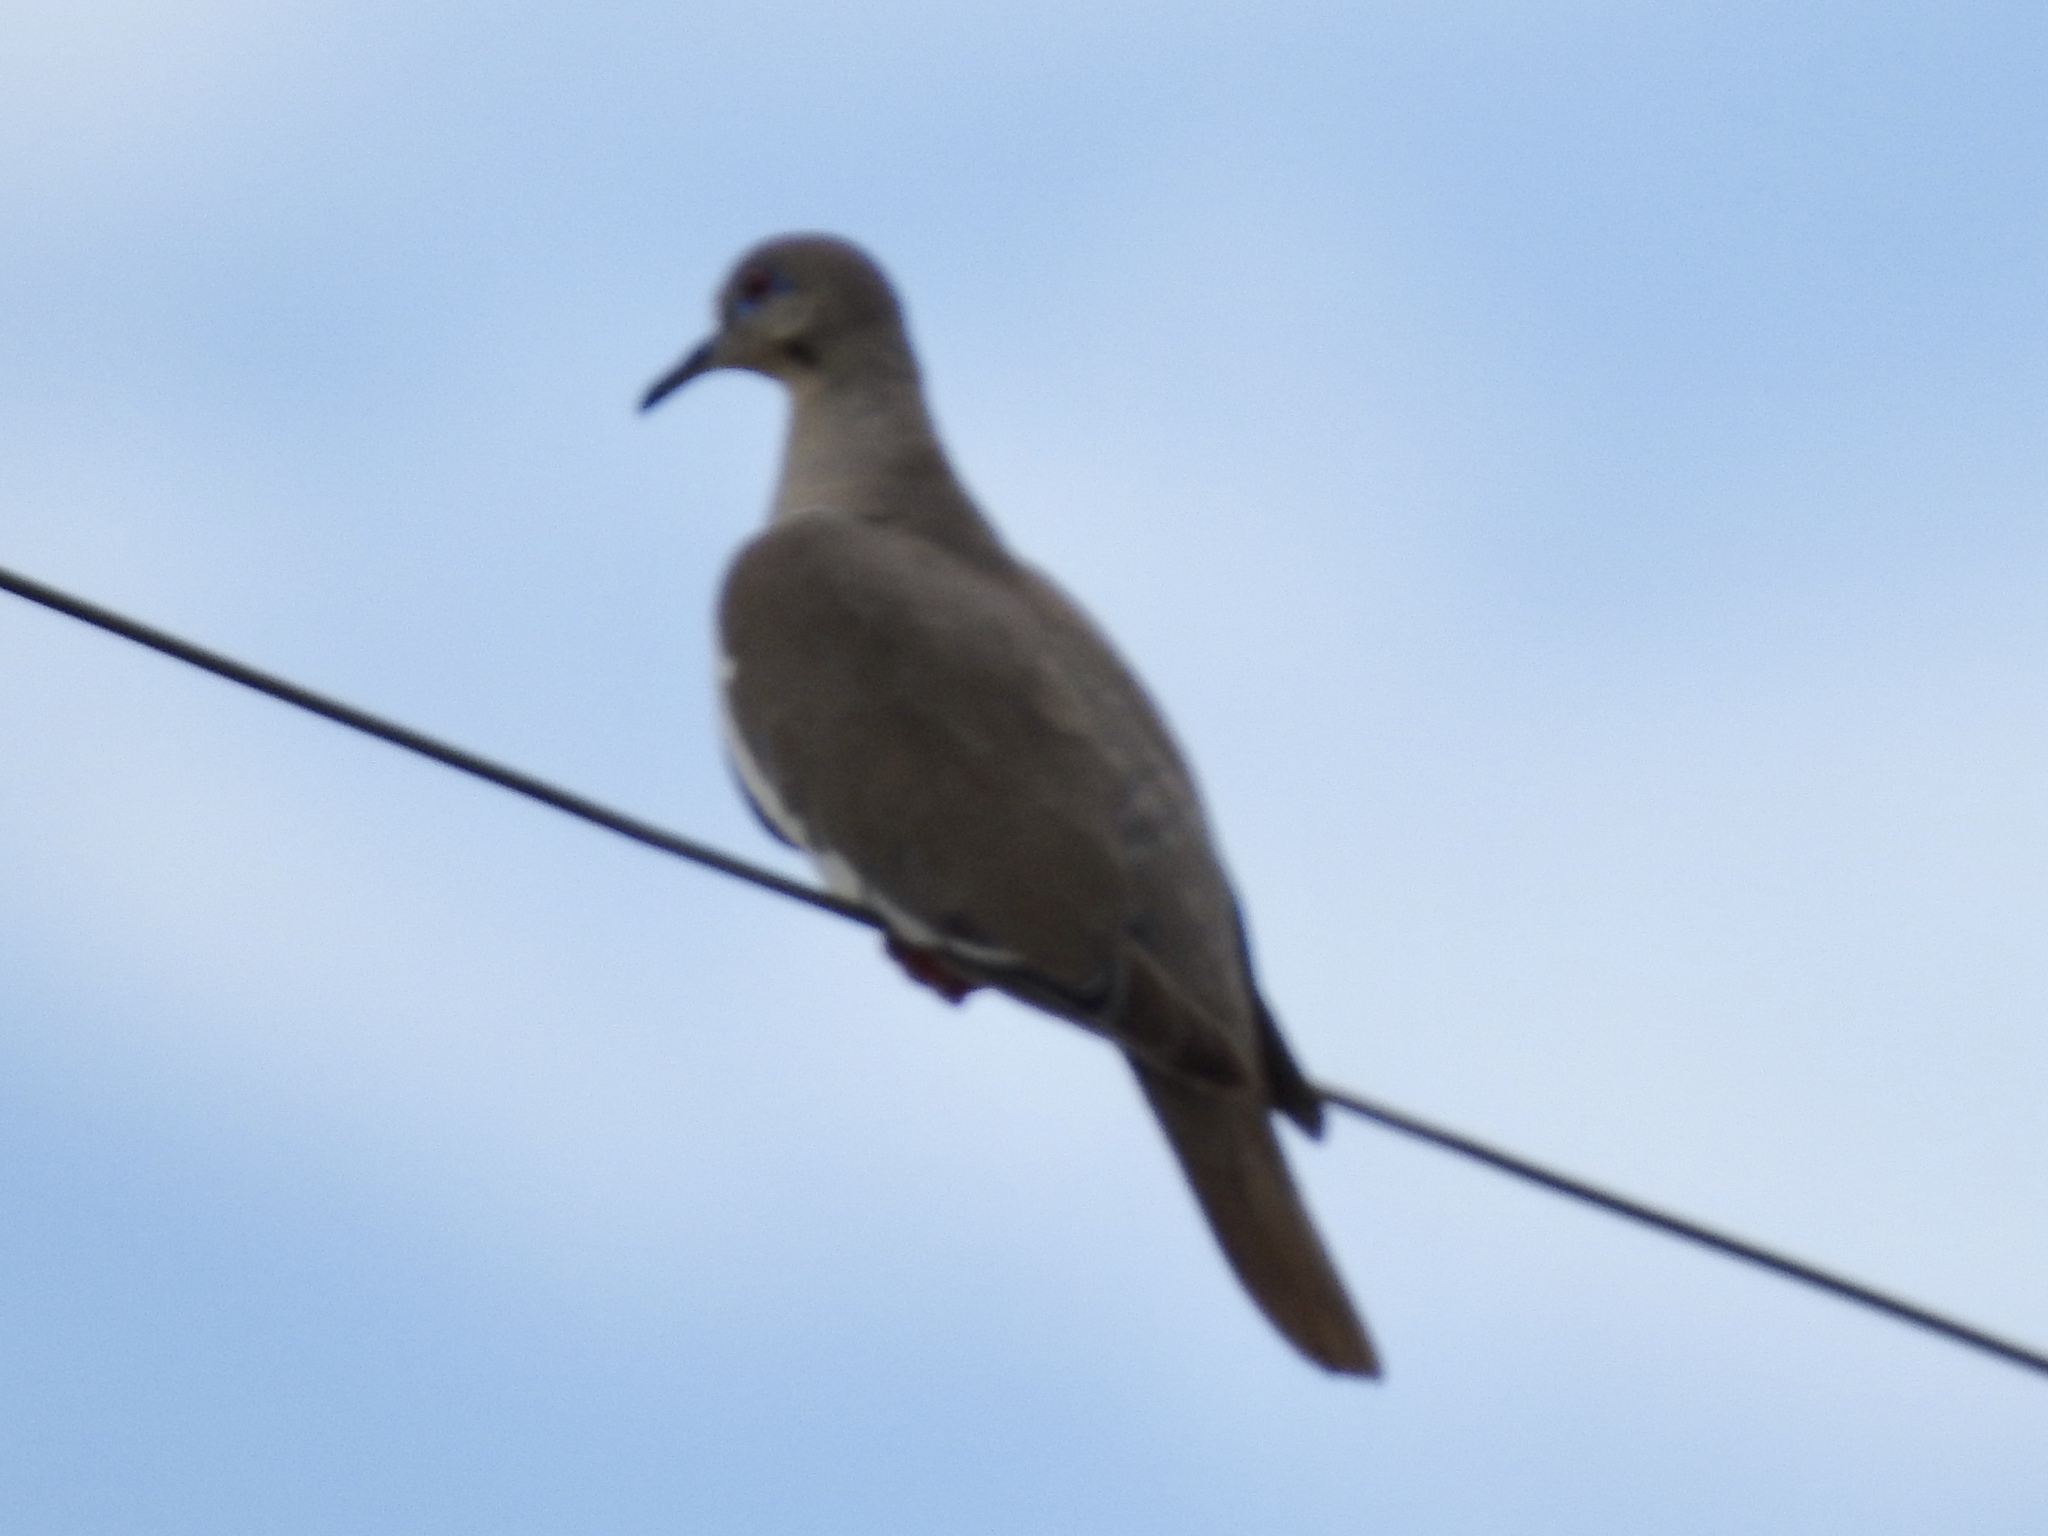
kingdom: Animalia
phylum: Chordata
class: Aves
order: Columbiformes
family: Columbidae
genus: Zenaida
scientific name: Zenaida asiatica
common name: White-winged dove
